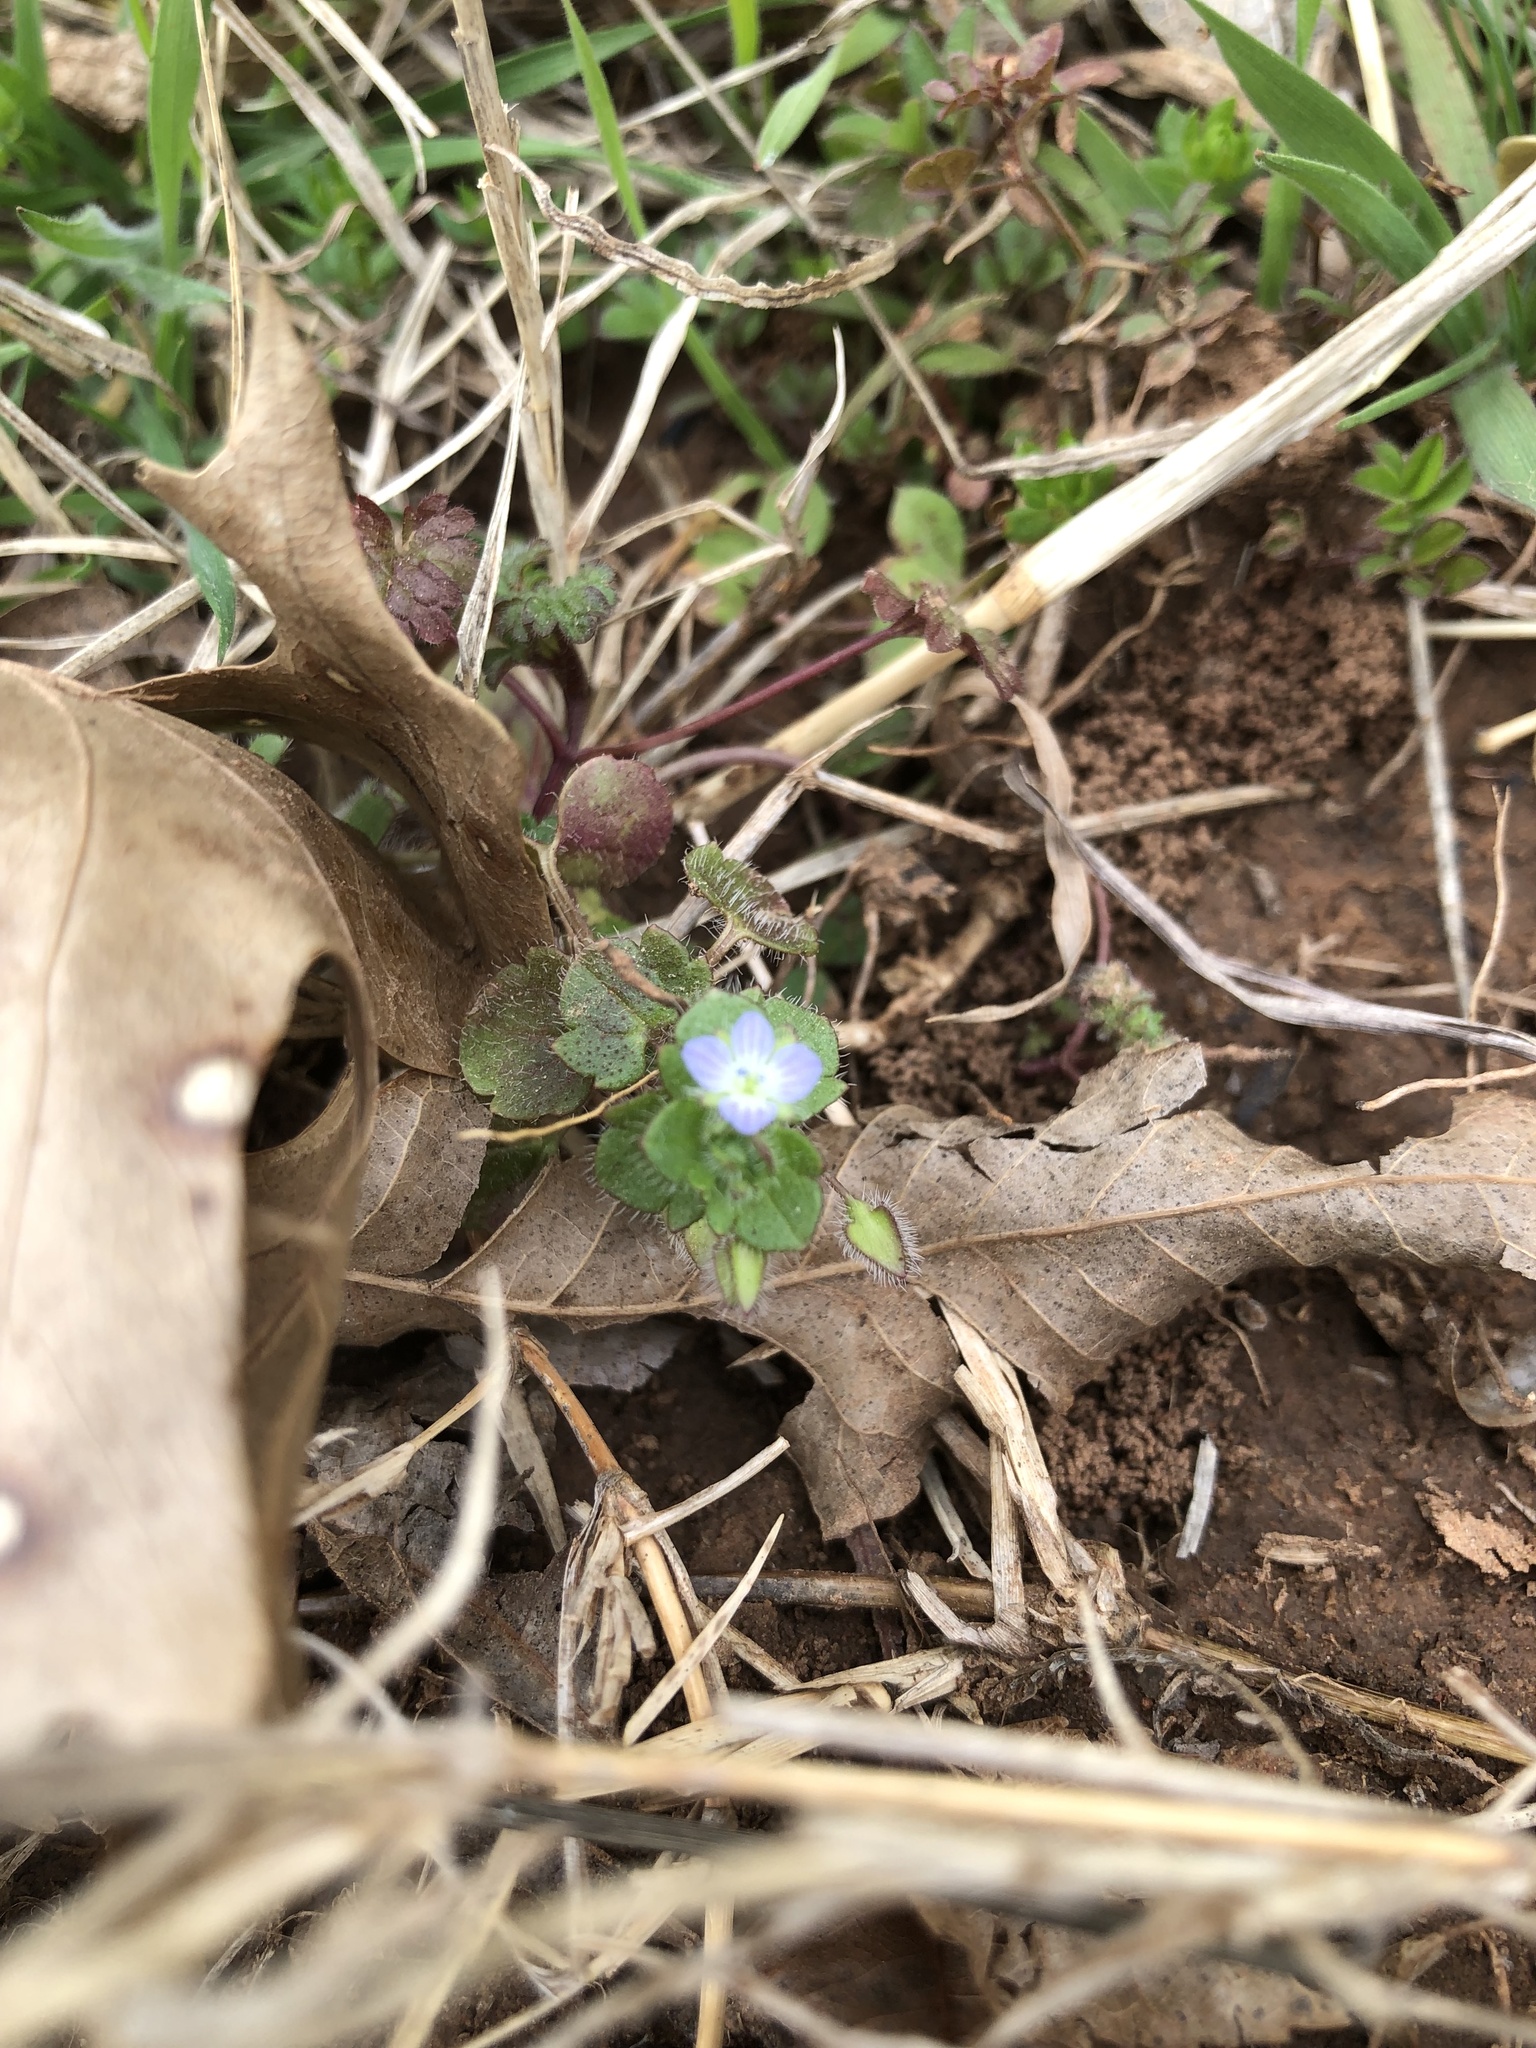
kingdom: Plantae
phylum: Tracheophyta
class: Magnoliopsida
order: Lamiales
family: Plantaginaceae
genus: Veronica
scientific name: Veronica hederifolia
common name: Ivy-leaved speedwell
